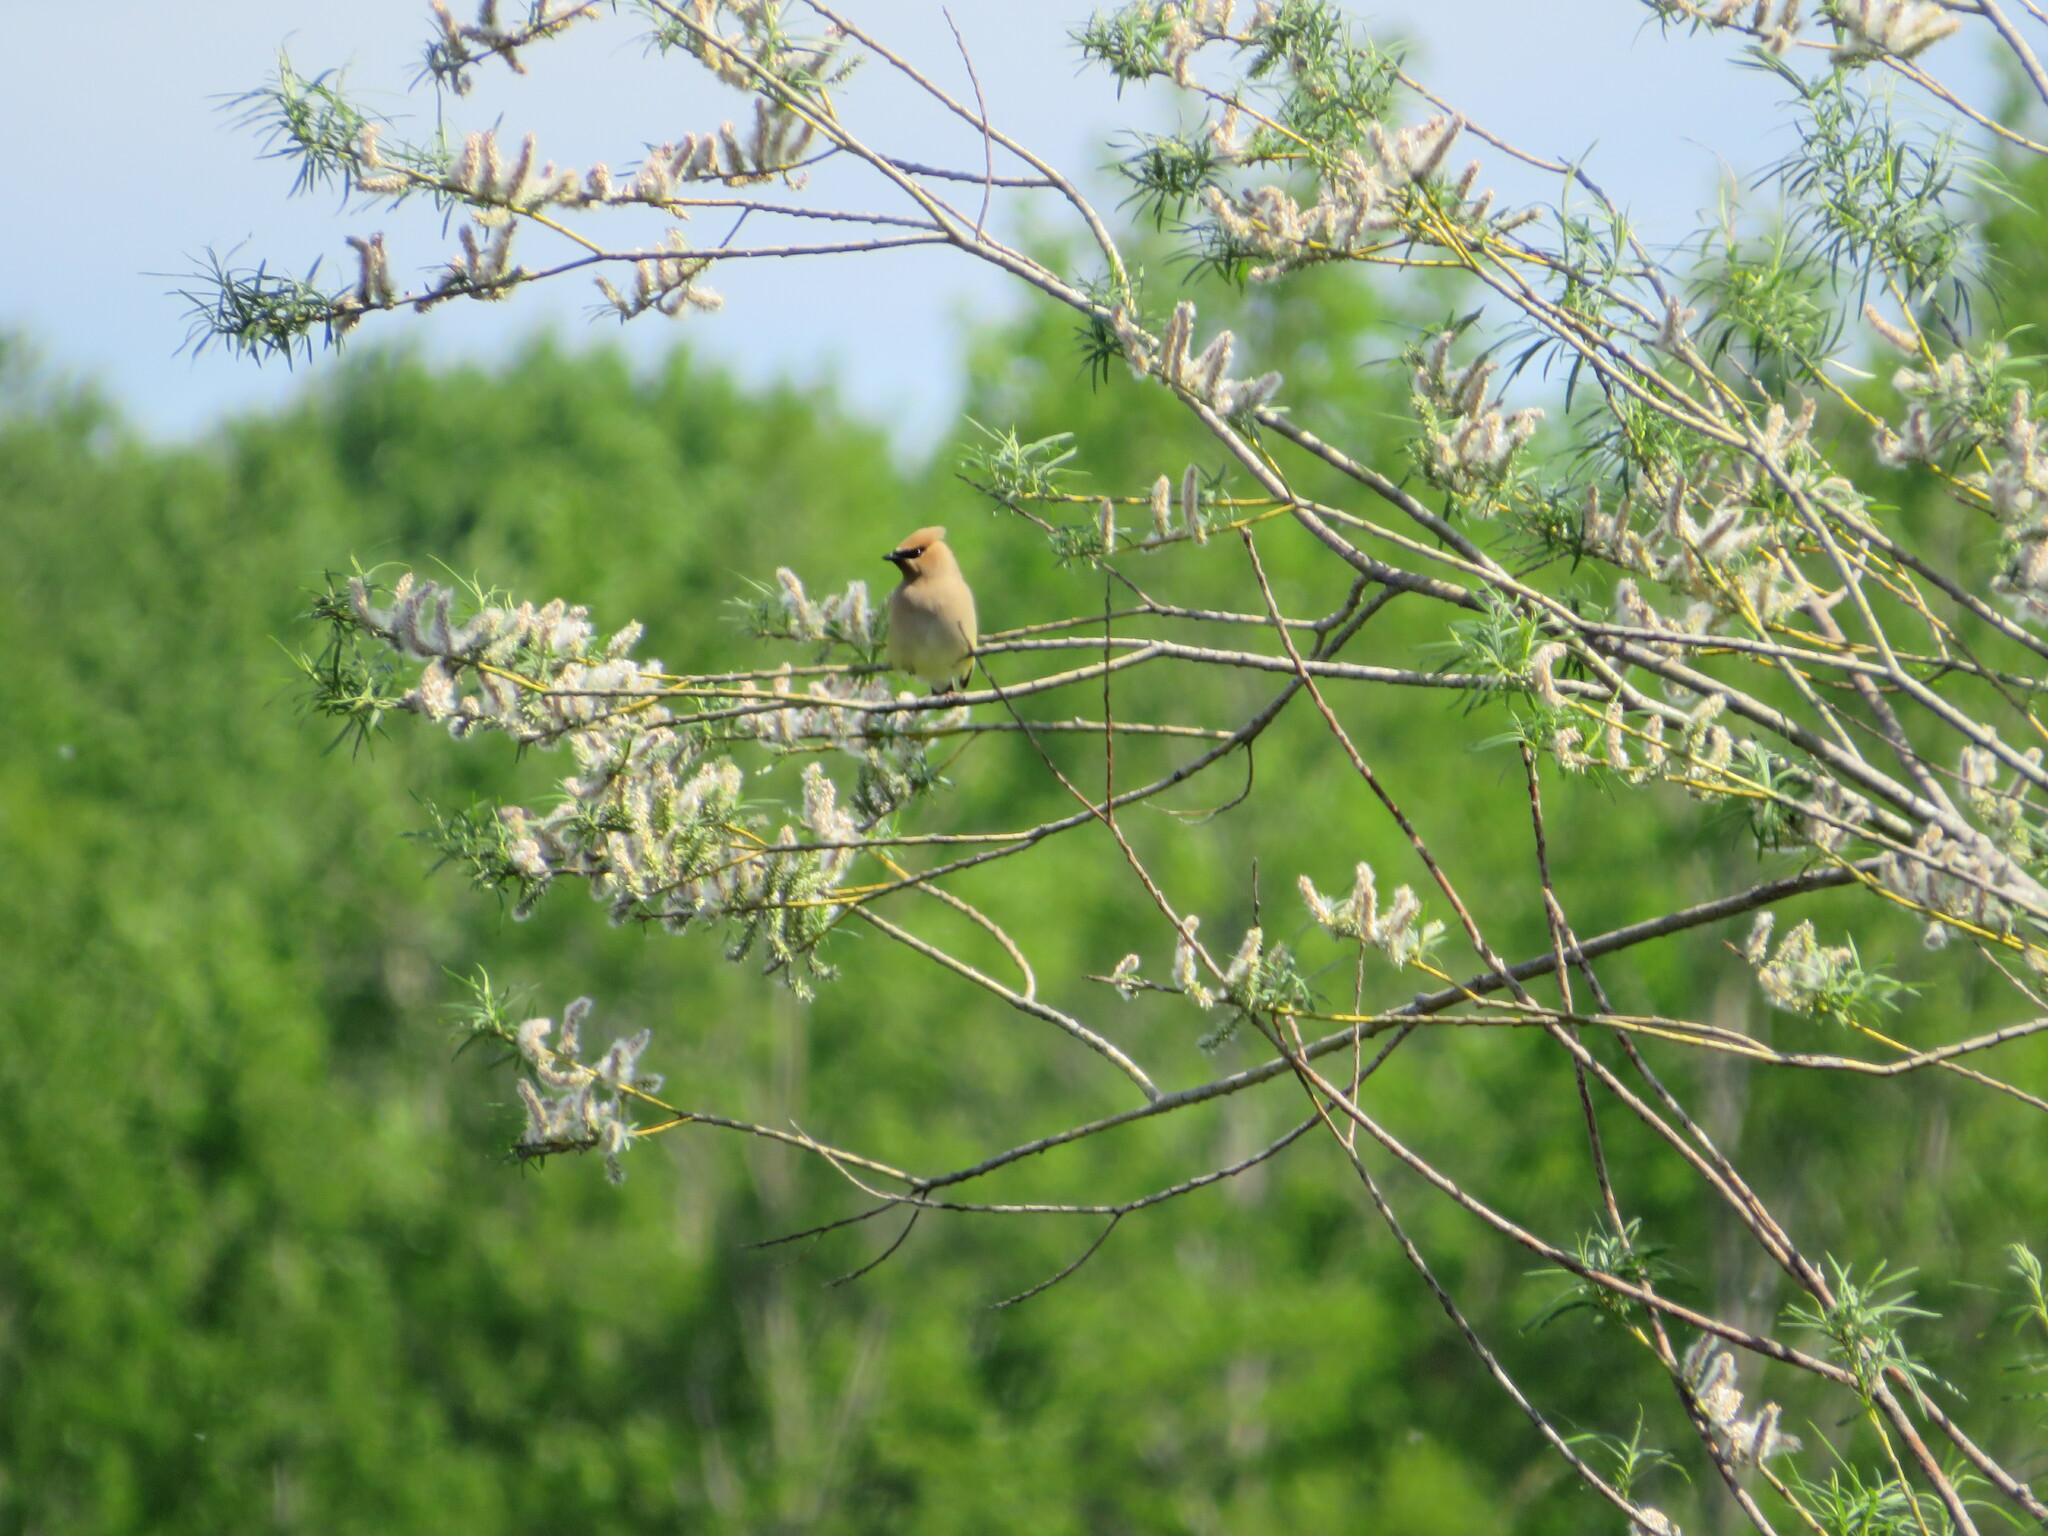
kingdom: Animalia
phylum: Chordata
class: Aves
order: Passeriformes
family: Bombycillidae
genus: Bombycilla
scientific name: Bombycilla cedrorum
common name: Cedar waxwing
